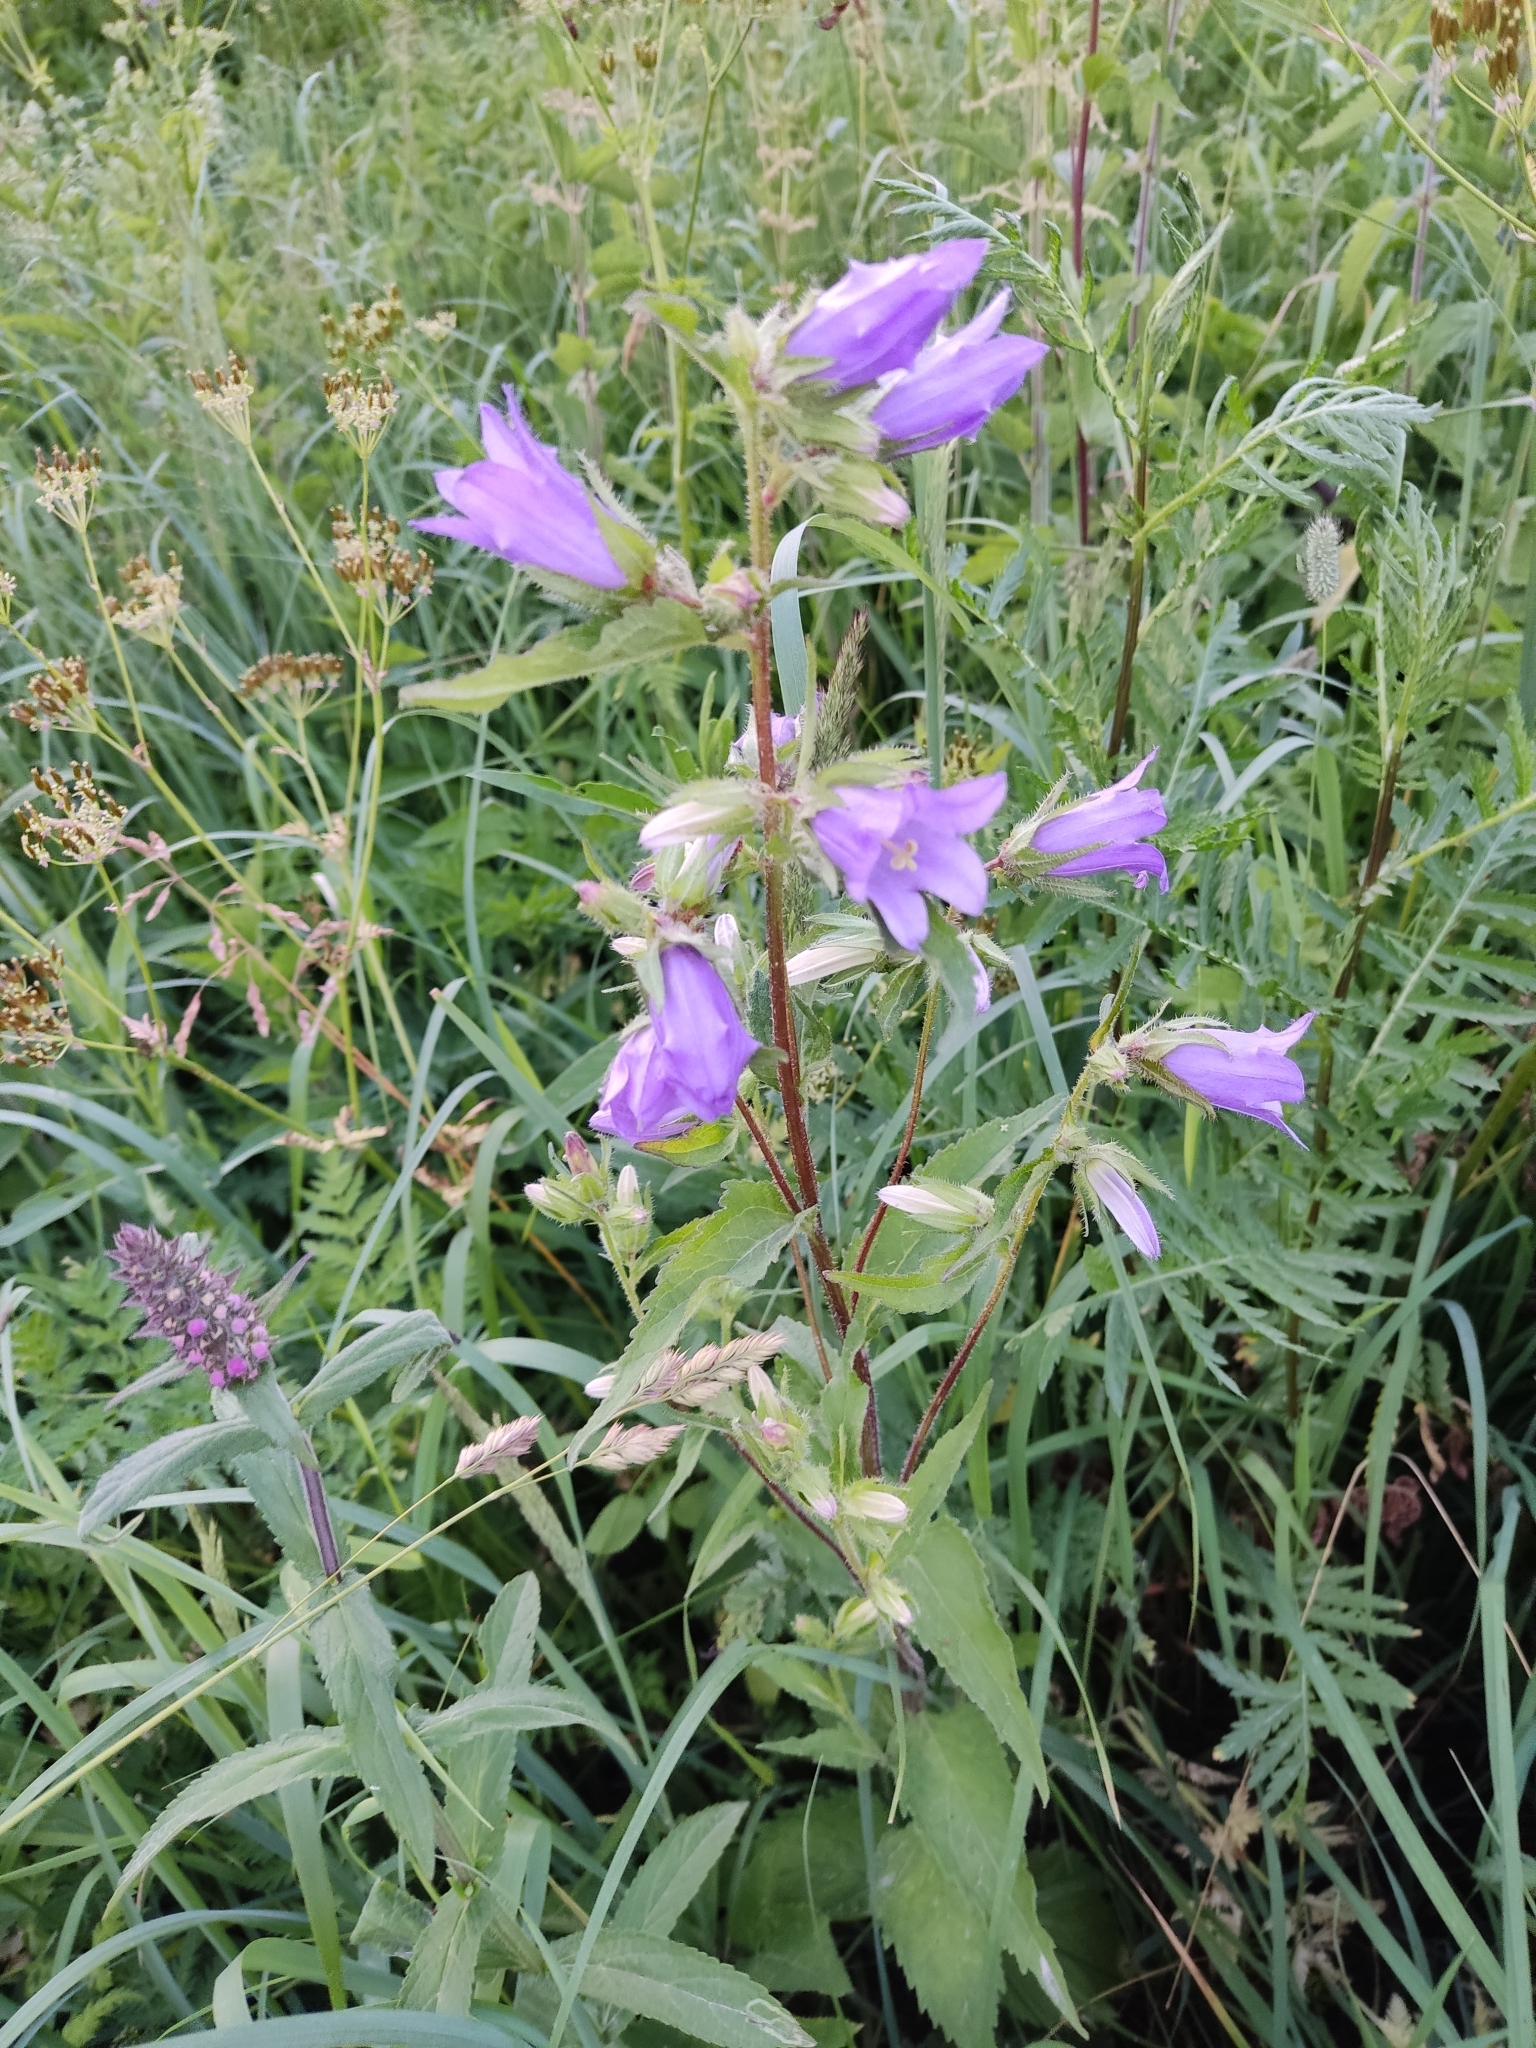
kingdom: Plantae
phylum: Tracheophyta
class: Magnoliopsida
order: Asterales
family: Campanulaceae
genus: Campanula
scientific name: Campanula trachelium
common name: Nettle-leaved bellflower
